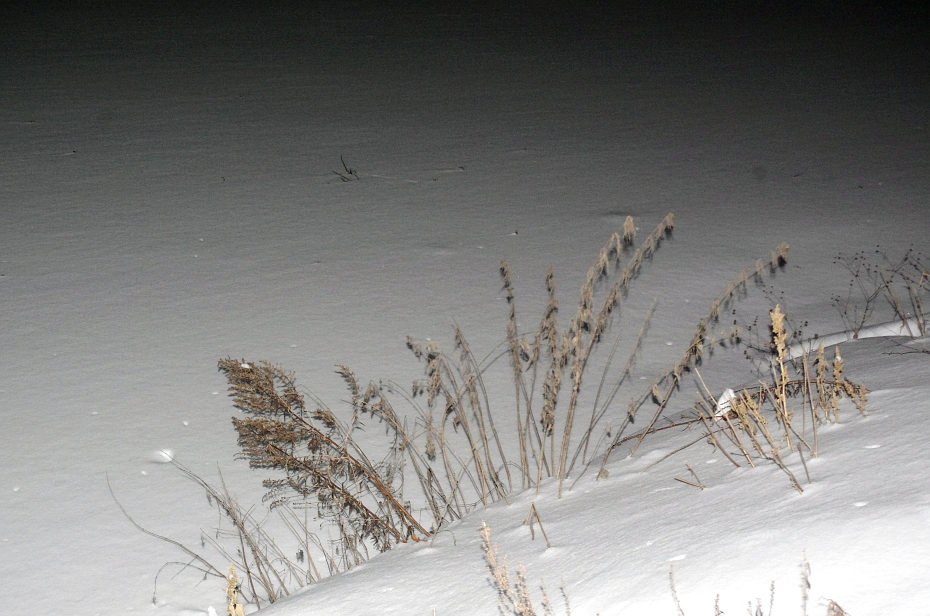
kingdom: Plantae
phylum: Tracheophyta
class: Magnoliopsida
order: Caryophyllales
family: Amaranthaceae
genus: Amaranthus
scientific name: Amaranthus retroflexus
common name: Redroot amaranth
